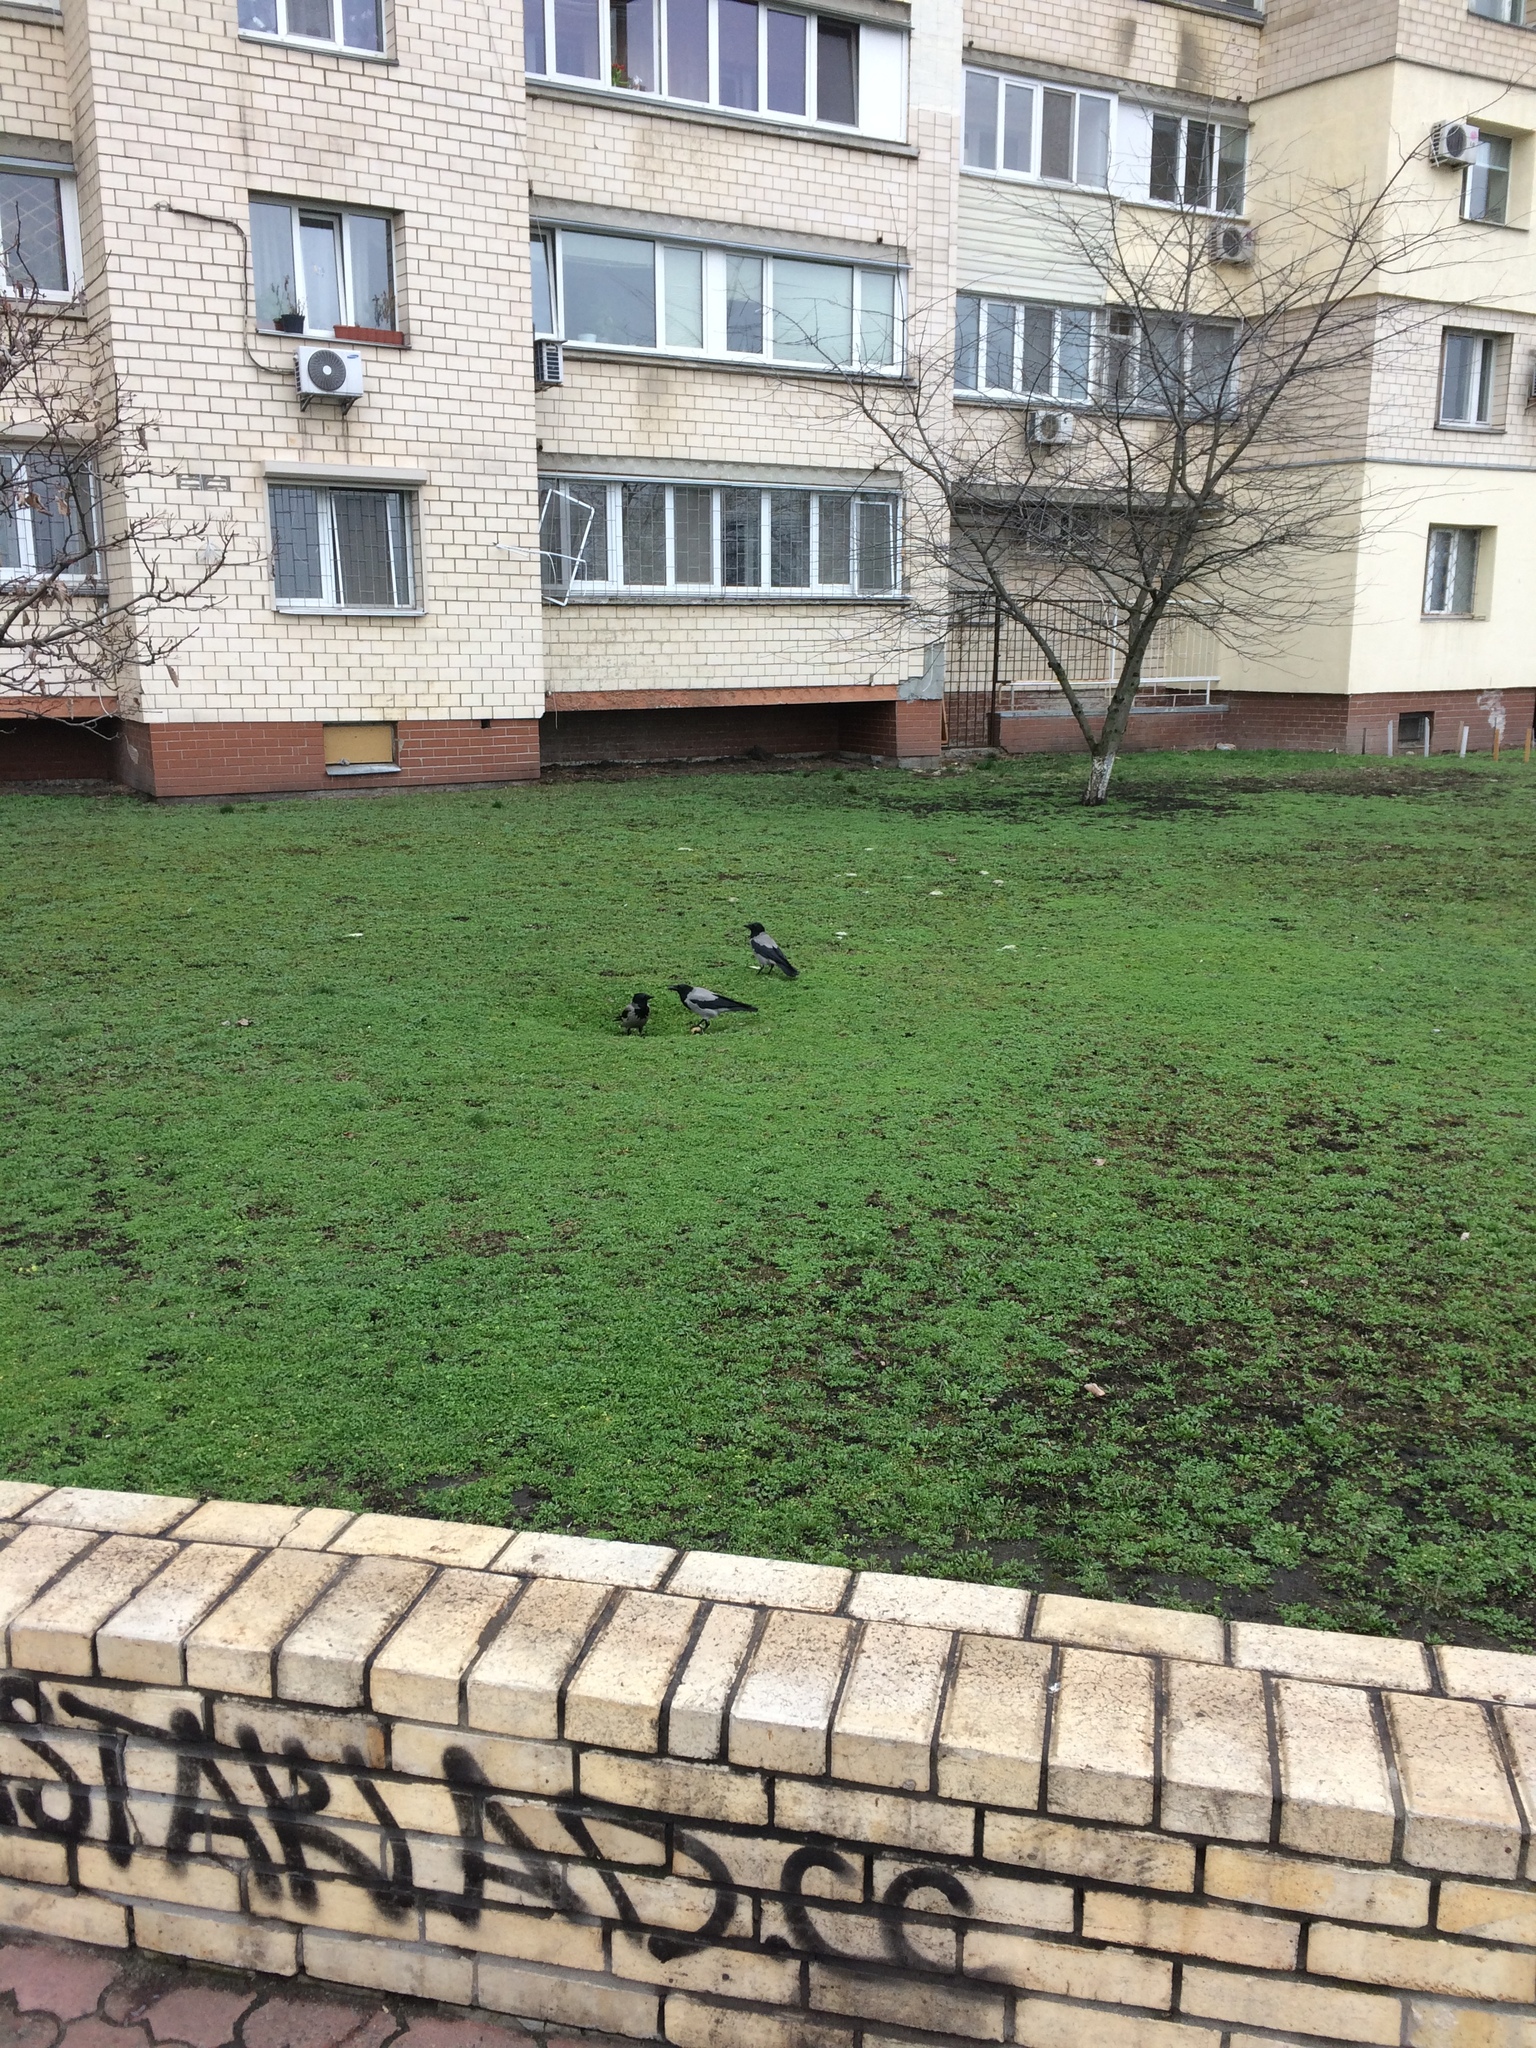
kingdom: Animalia
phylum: Chordata
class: Aves
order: Passeriformes
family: Corvidae
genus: Corvus
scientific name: Corvus cornix
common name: Hooded crow
